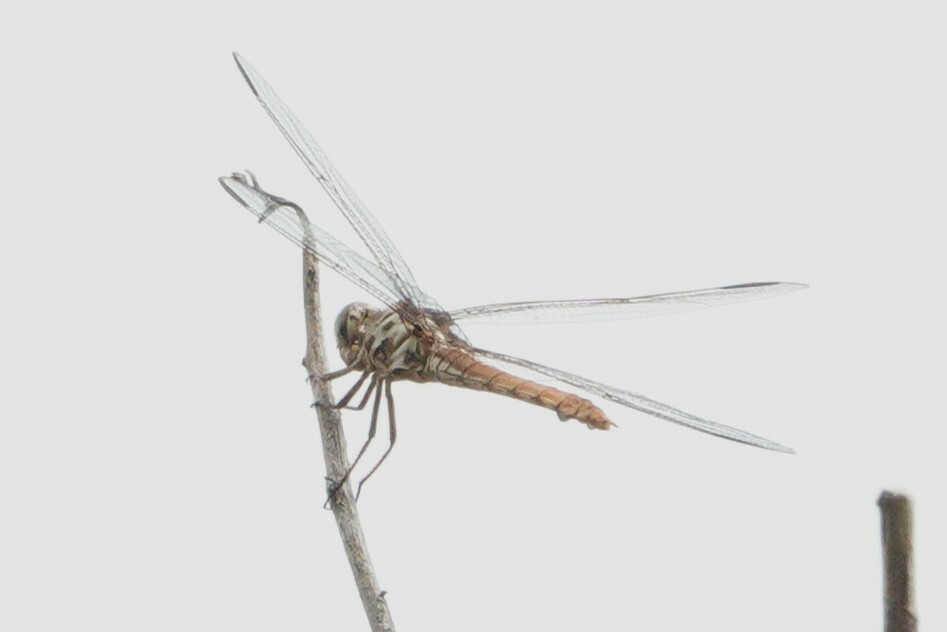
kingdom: Animalia
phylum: Arthropoda
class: Insecta
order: Odonata
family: Libellulidae
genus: Orthemis
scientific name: Orthemis ferruginea
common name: Roseate skimmer
